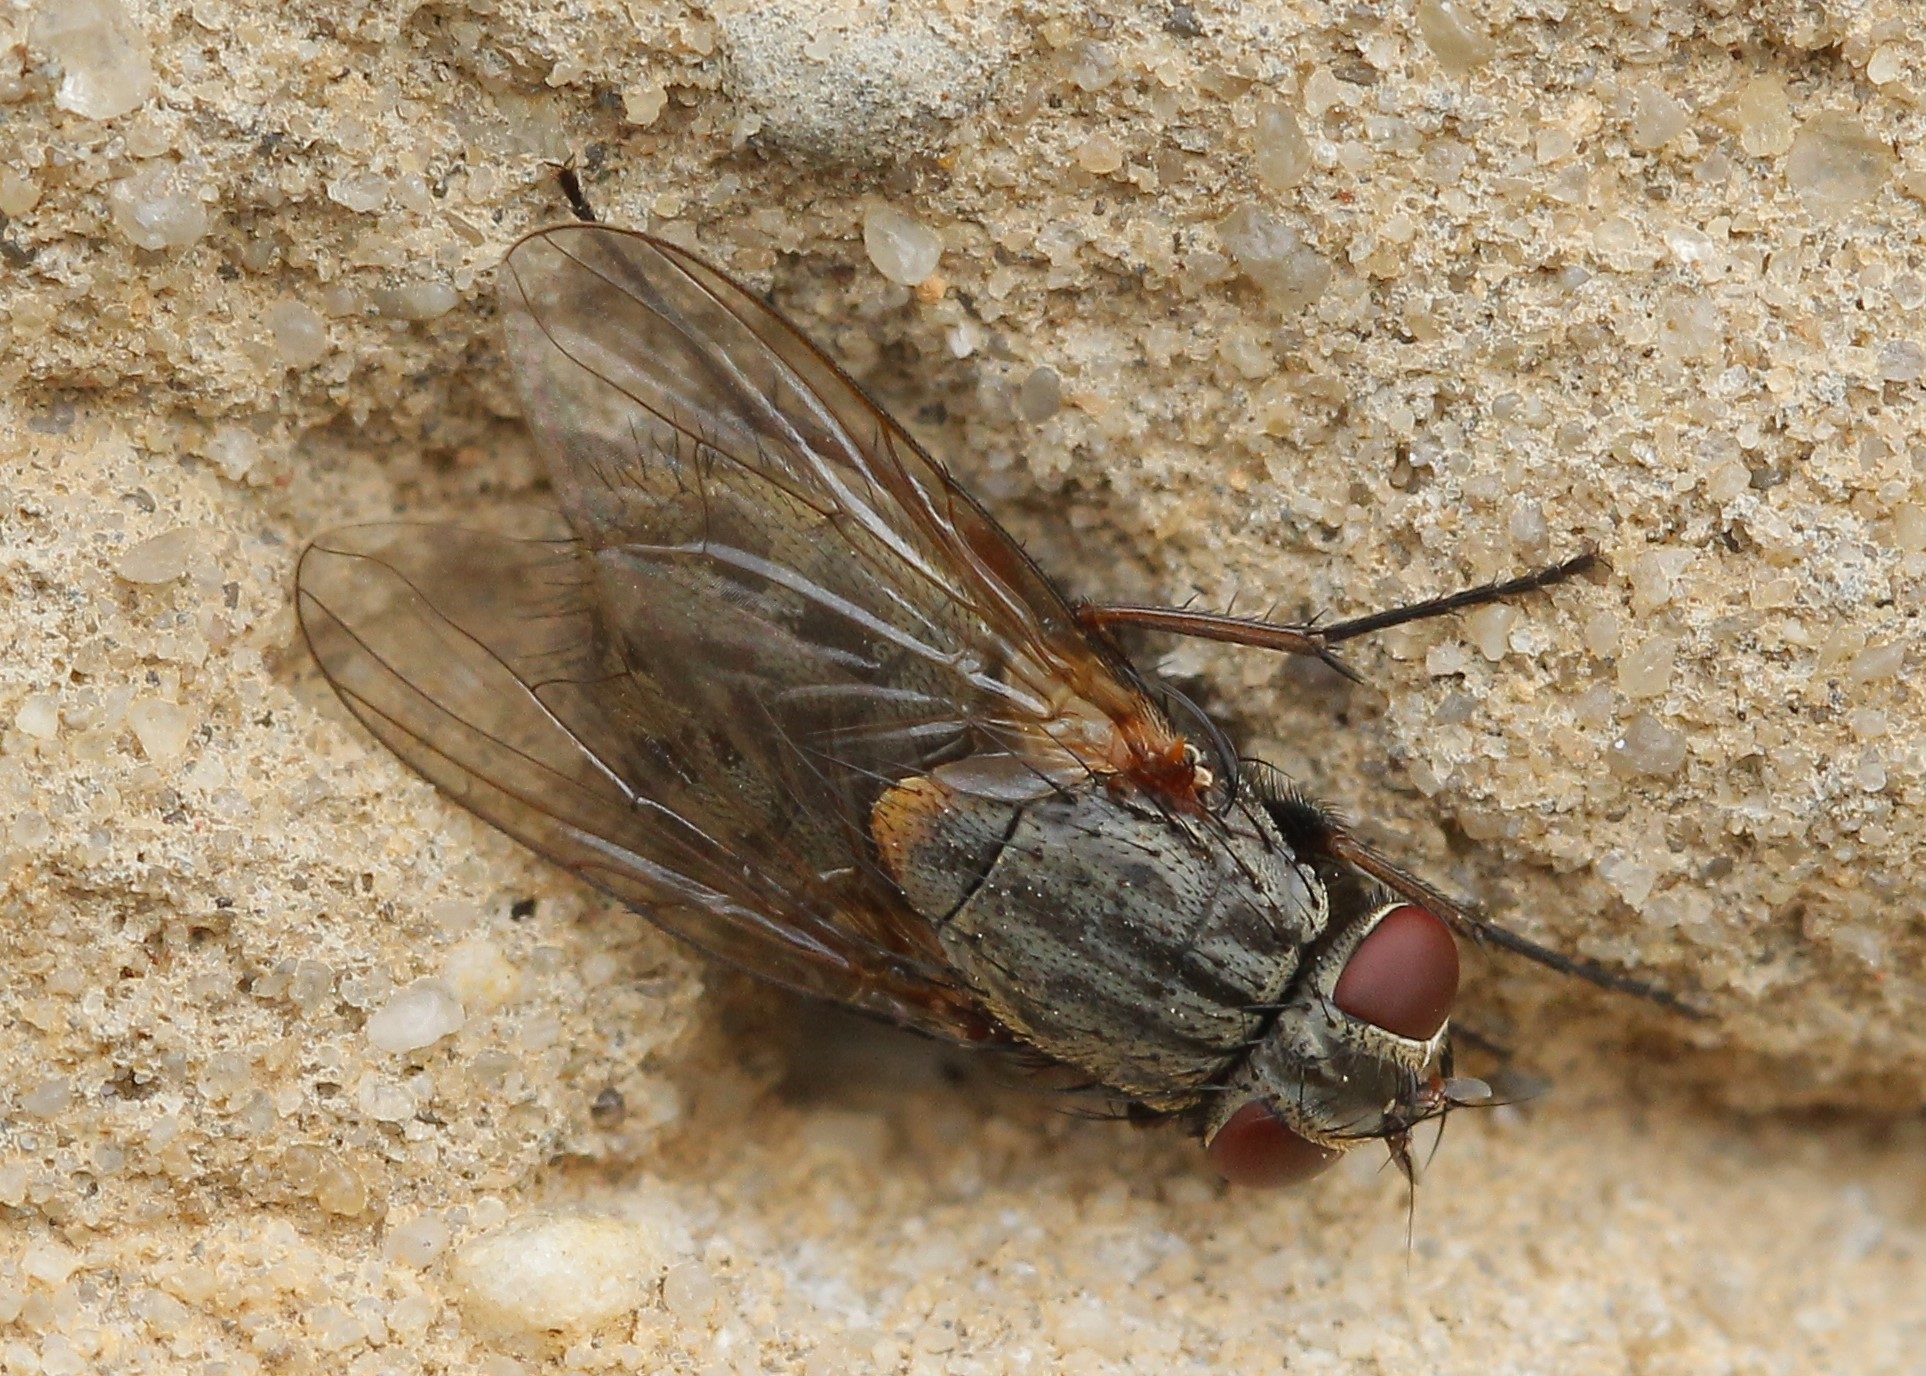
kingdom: Animalia
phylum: Arthropoda
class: Insecta
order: Diptera
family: Muscidae
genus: Muscina
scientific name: Muscina stabulans
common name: False stable fly
